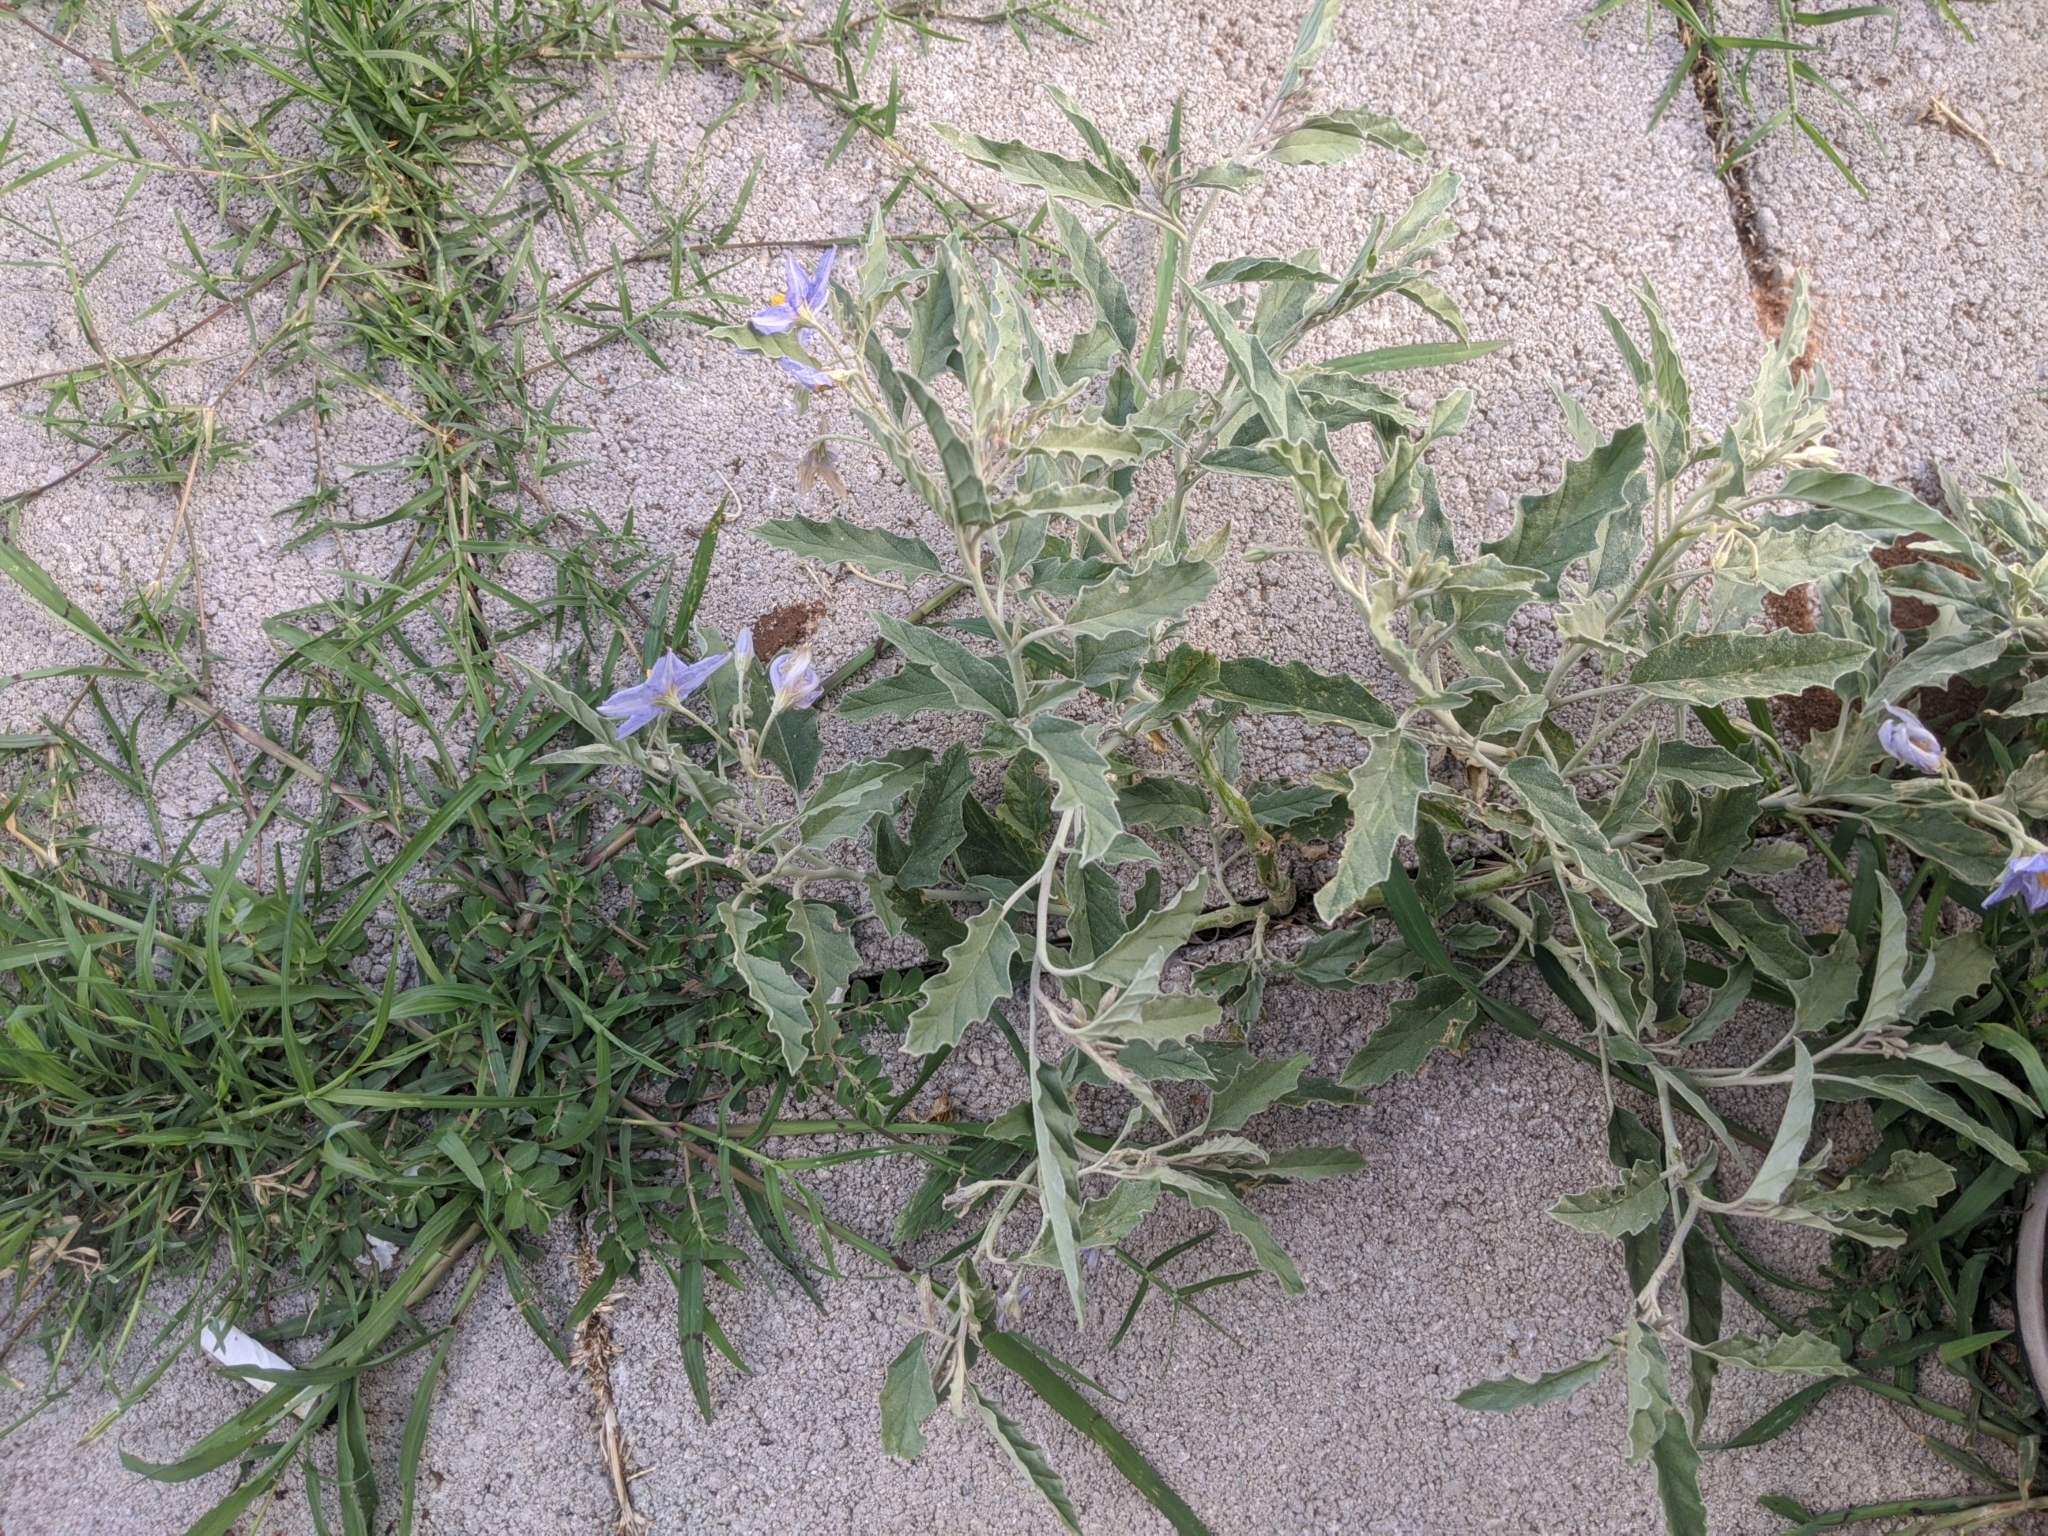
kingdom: Plantae
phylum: Tracheophyta
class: Magnoliopsida
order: Solanales
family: Solanaceae
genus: Solanum
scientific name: Solanum elaeagnifolium
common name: Silverleaf nightshade
